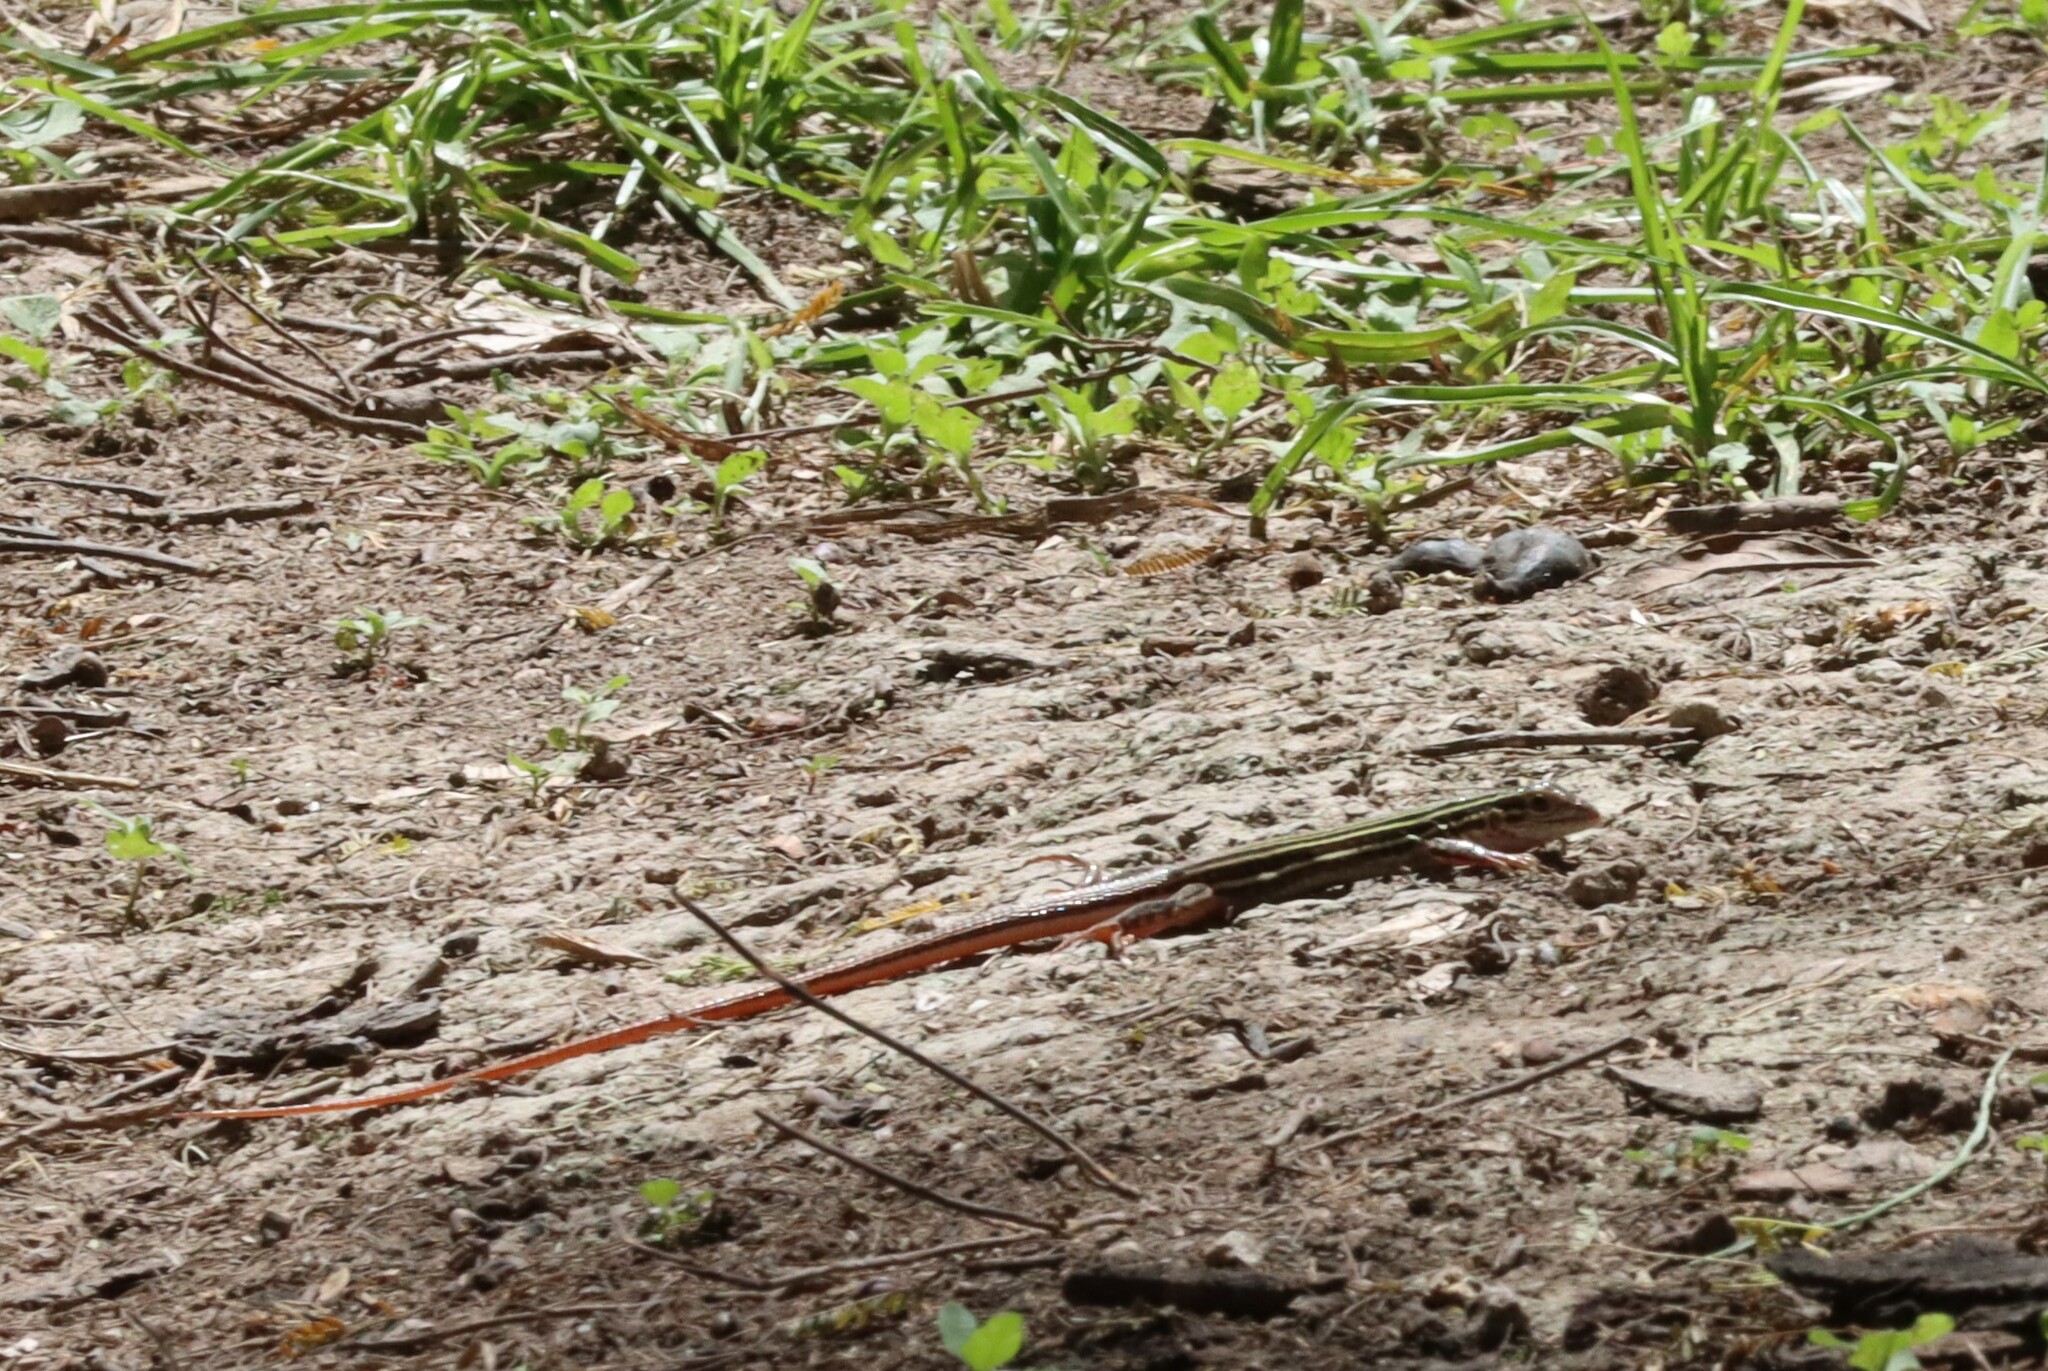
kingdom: Animalia
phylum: Chordata
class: Squamata
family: Teiidae
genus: Aspidoscelis
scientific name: Aspidoscelis gularis
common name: Eastern spotted whiptail
